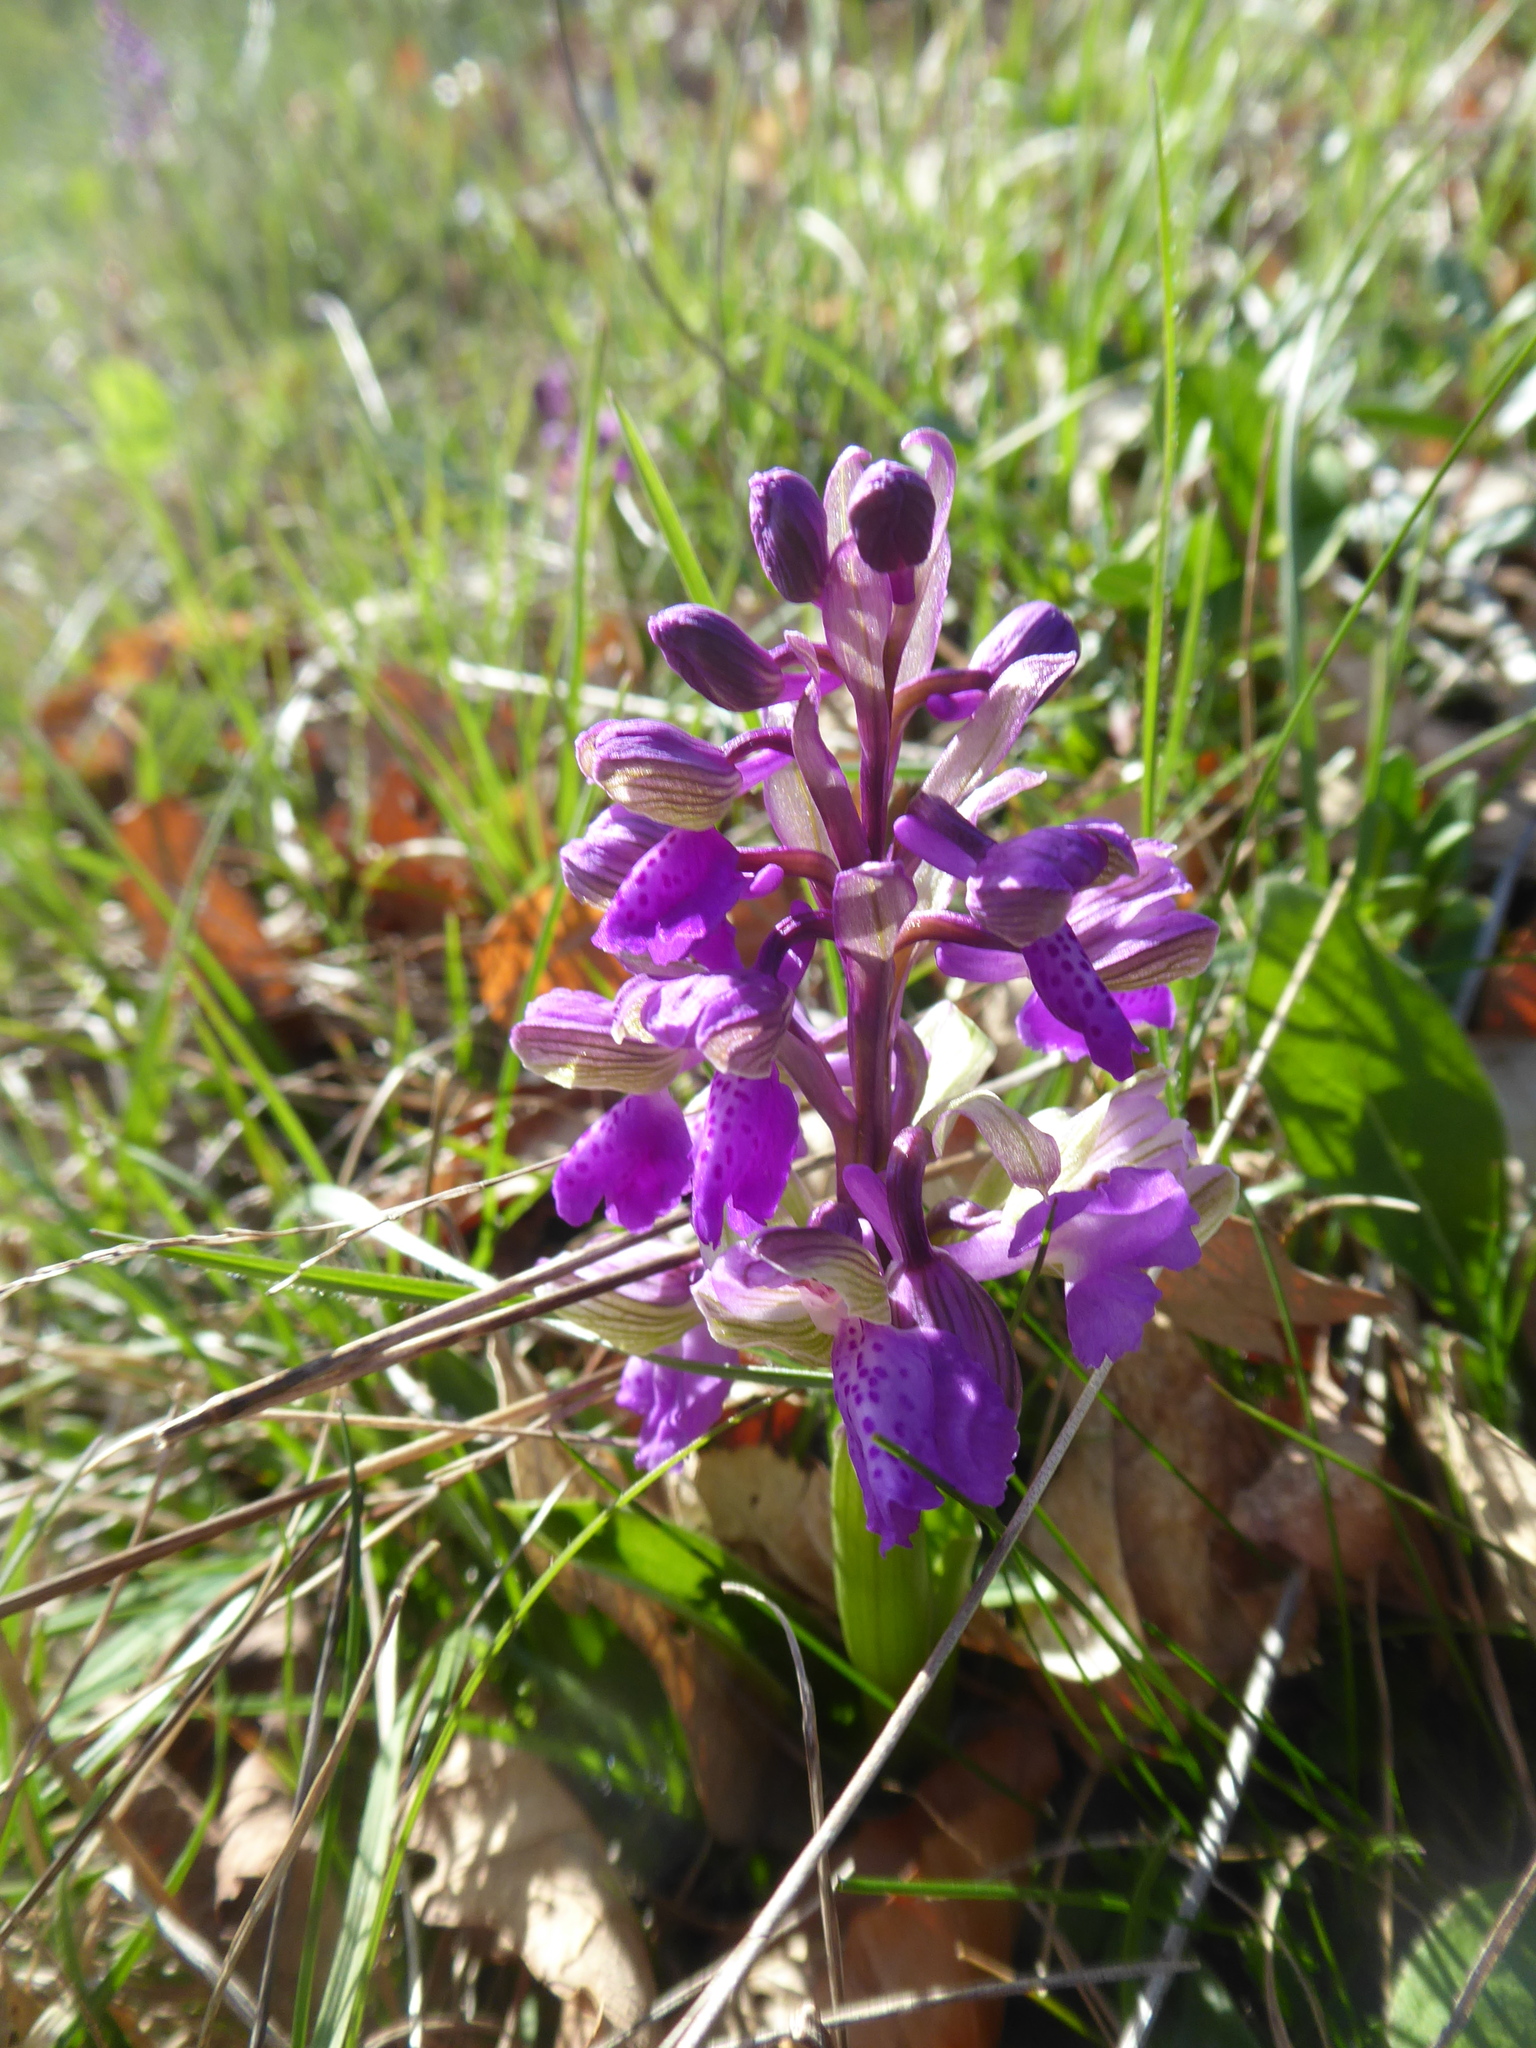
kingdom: Plantae
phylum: Tracheophyta
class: Liliopsida
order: Asparagales
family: Orchidaceae
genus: Anacamptis
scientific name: Anacamptis morio
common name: Green-winged orchid
